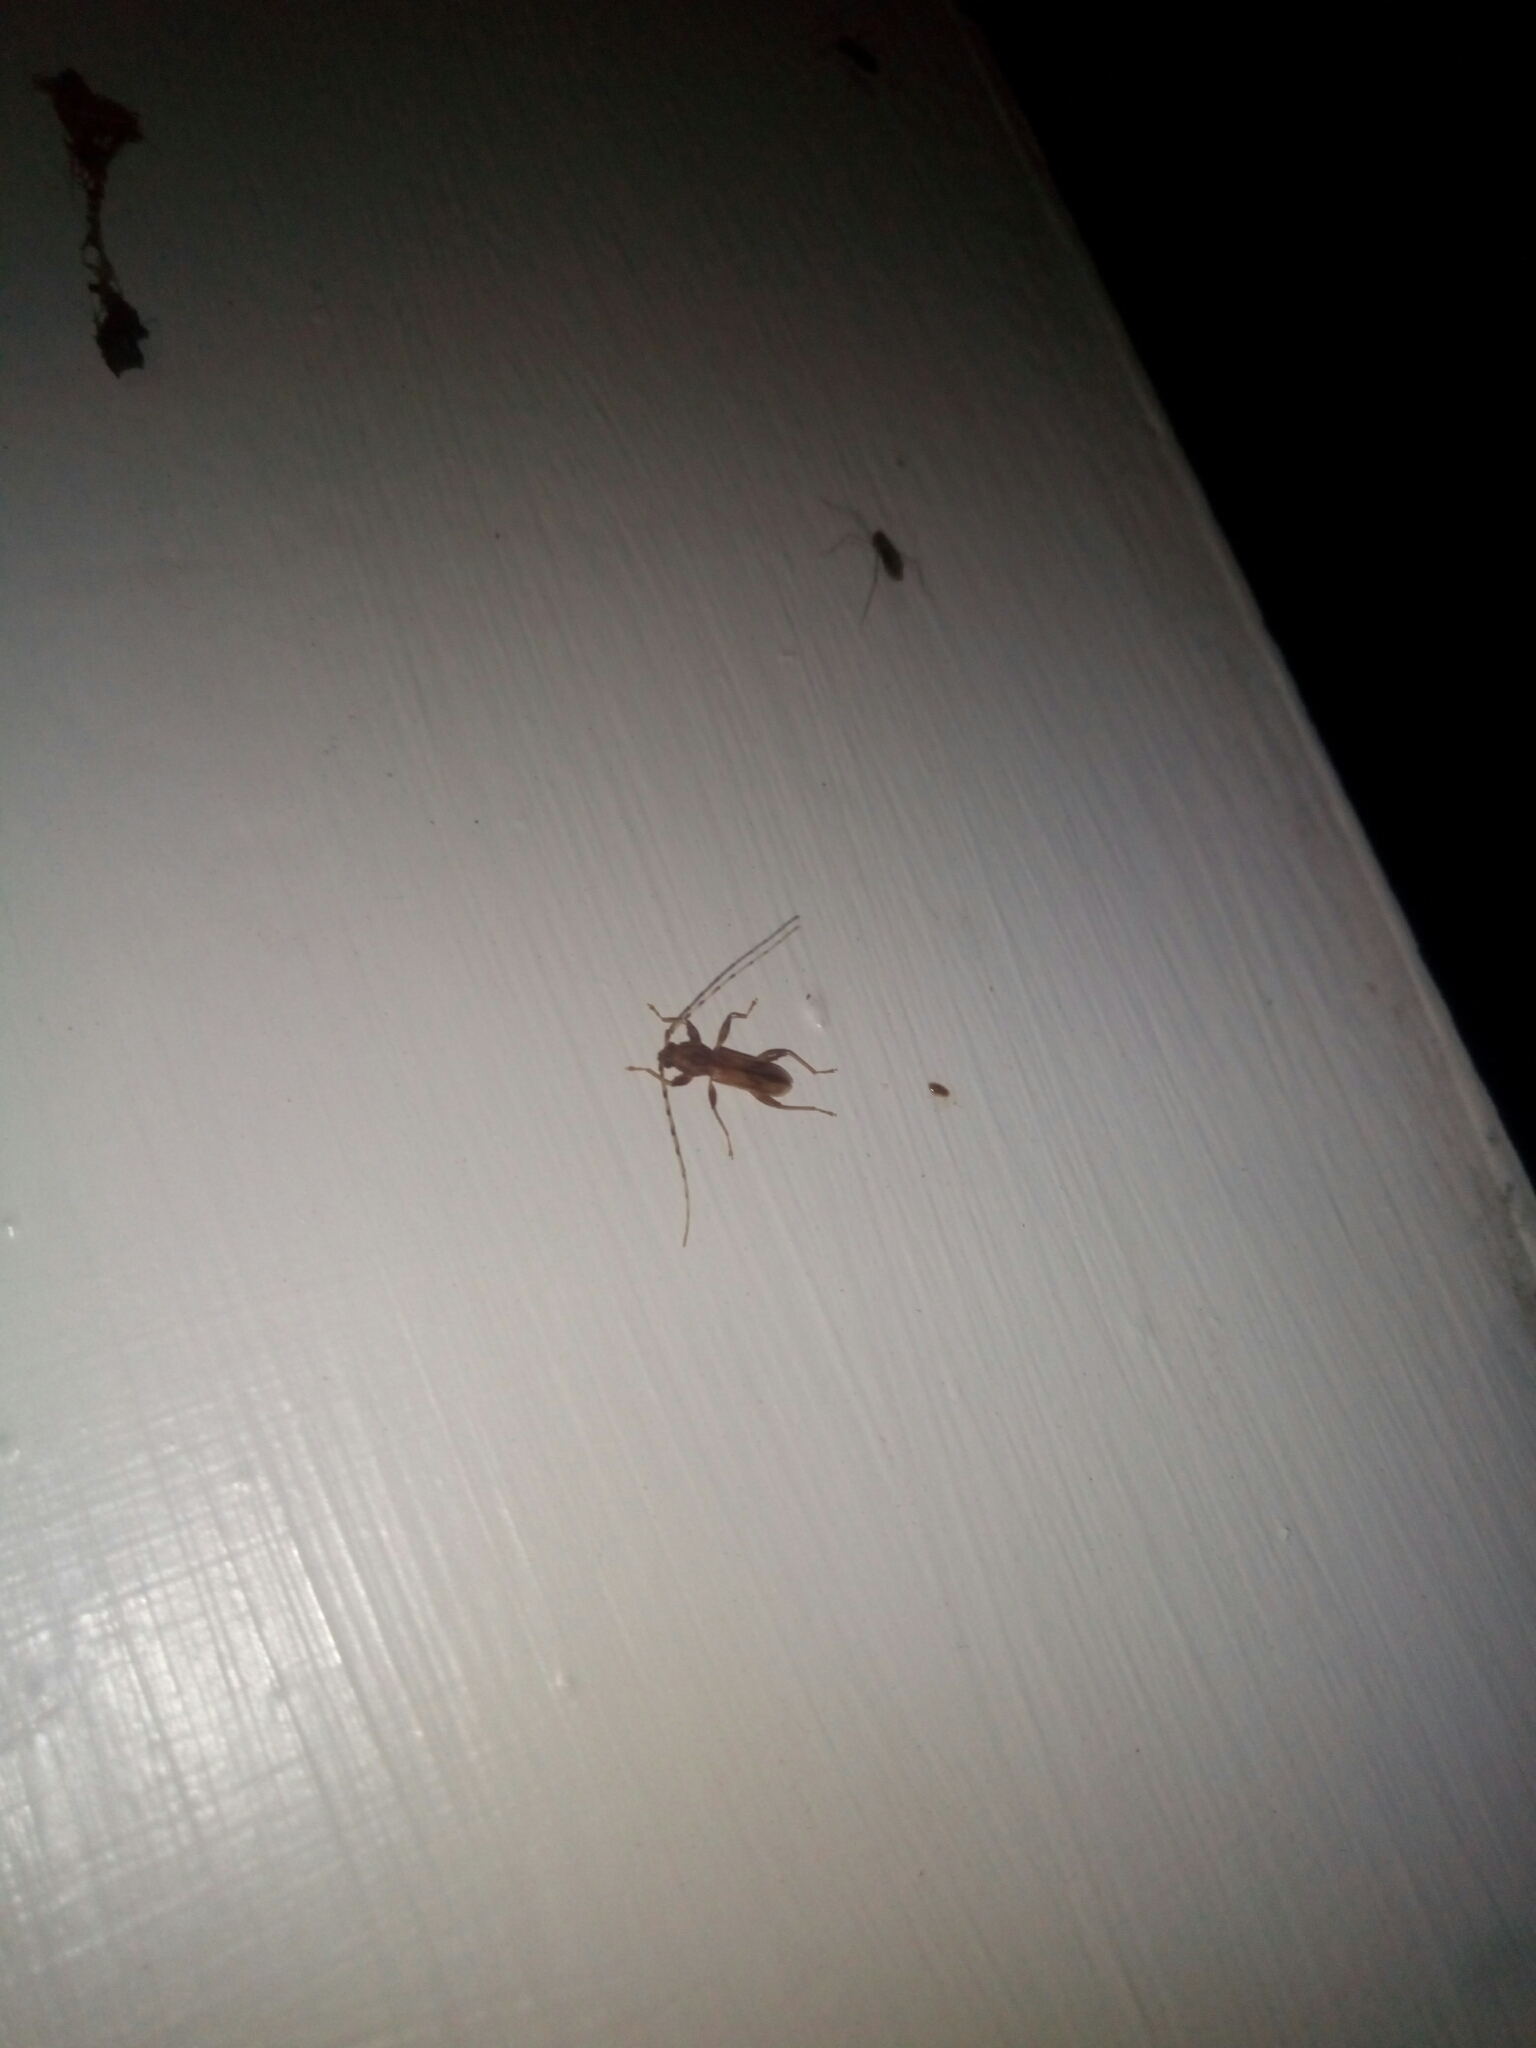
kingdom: Animalia
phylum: Arthropoda
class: Insecta
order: Coleoptera
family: Cerambycidae
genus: Curius
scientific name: Curius dentatus
